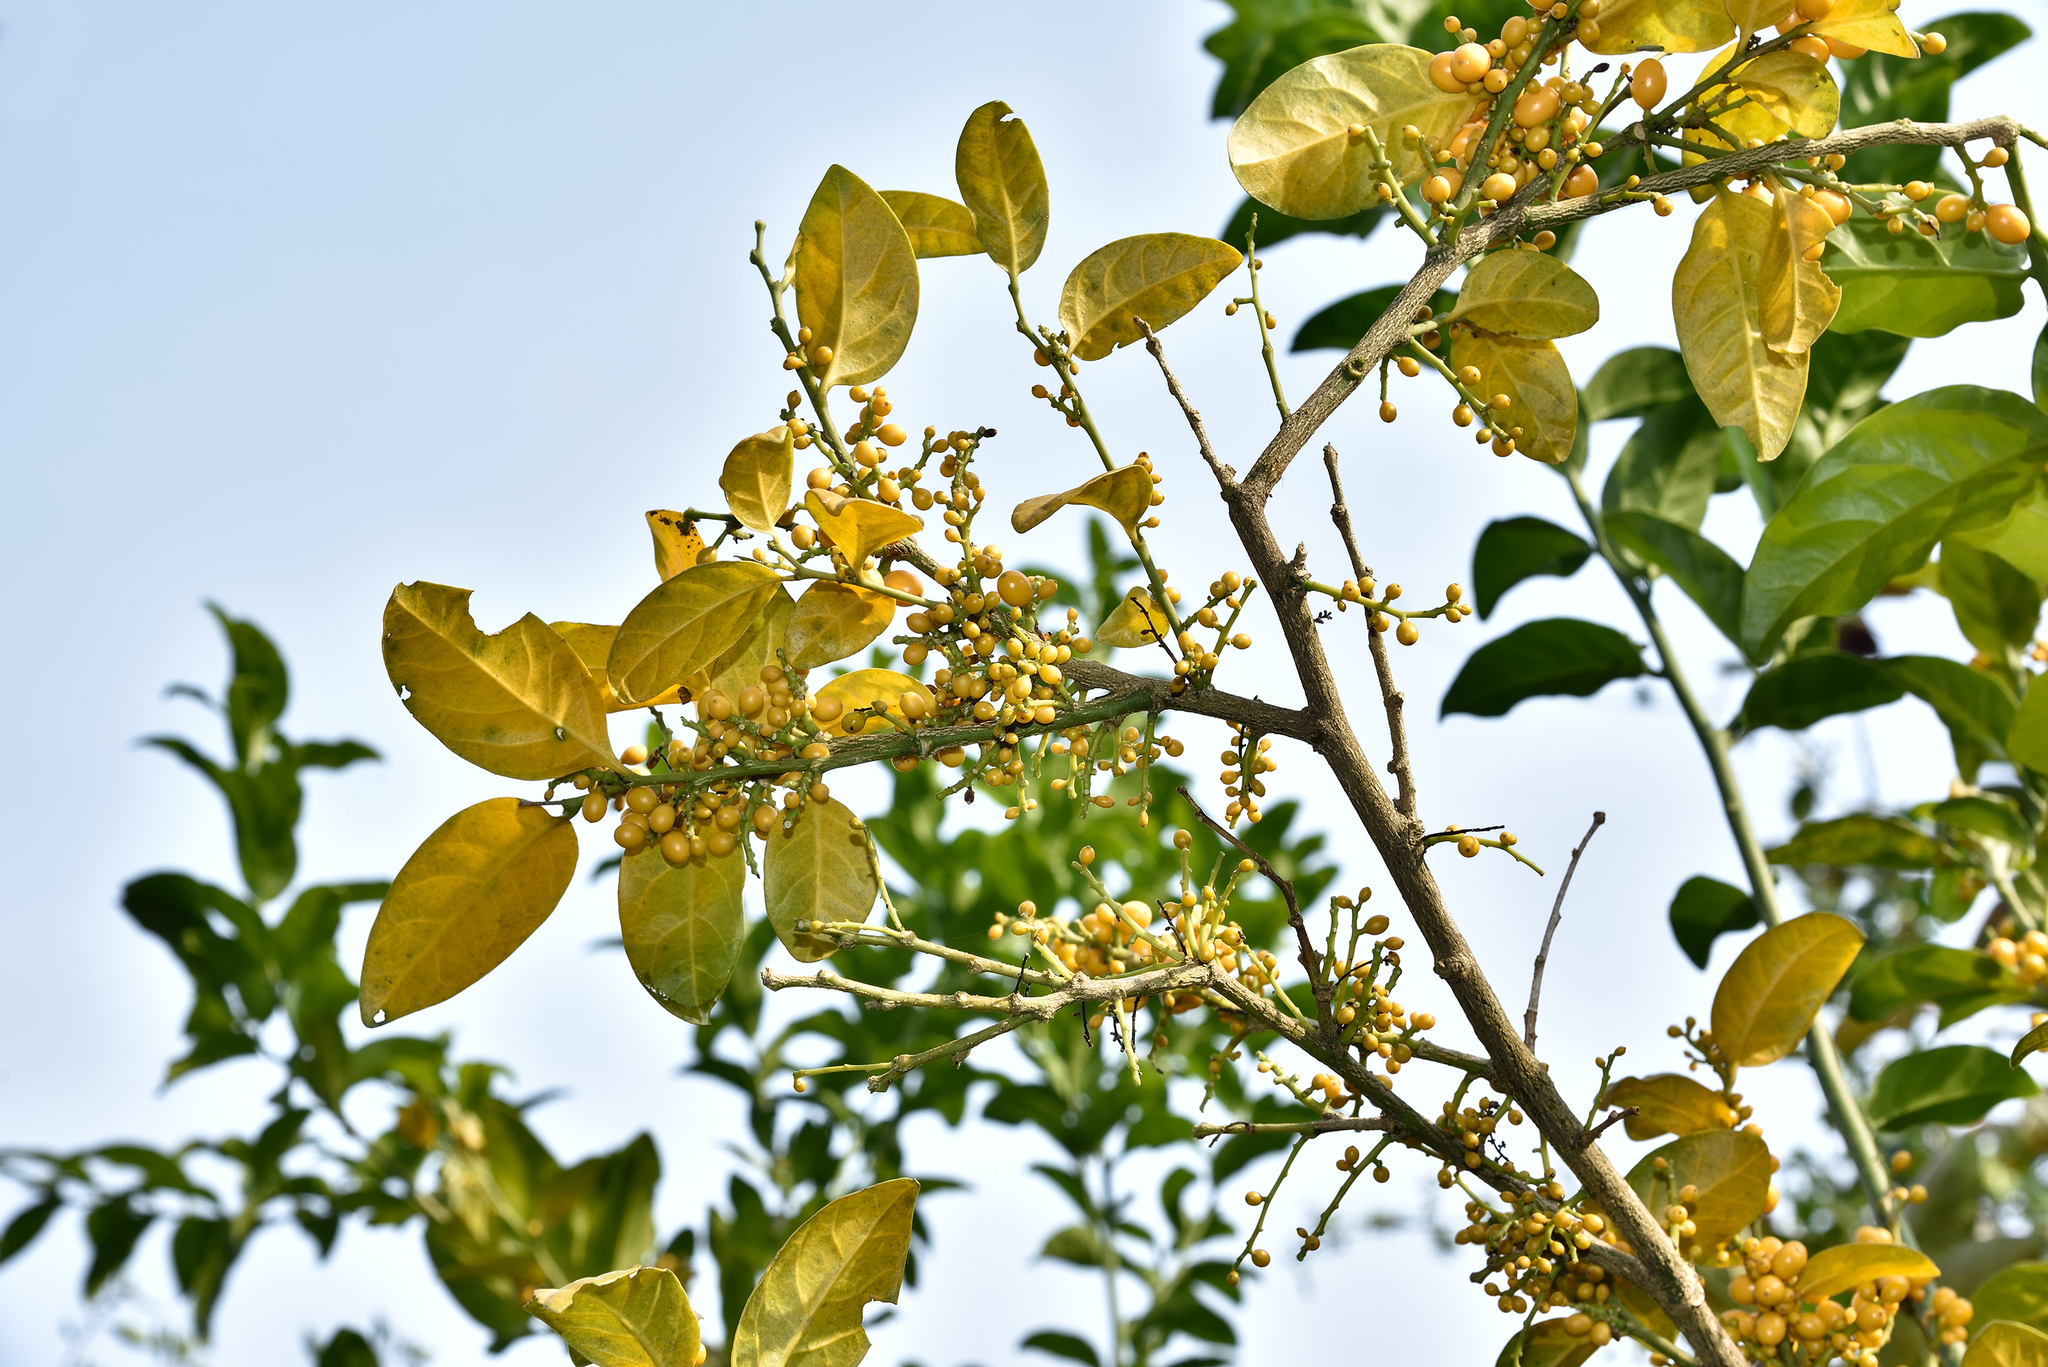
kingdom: Plantae
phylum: Tracheophyta
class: Magnoliopsida
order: Santalales
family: Opiliaceae
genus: Champereia
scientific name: Champereia manillana
